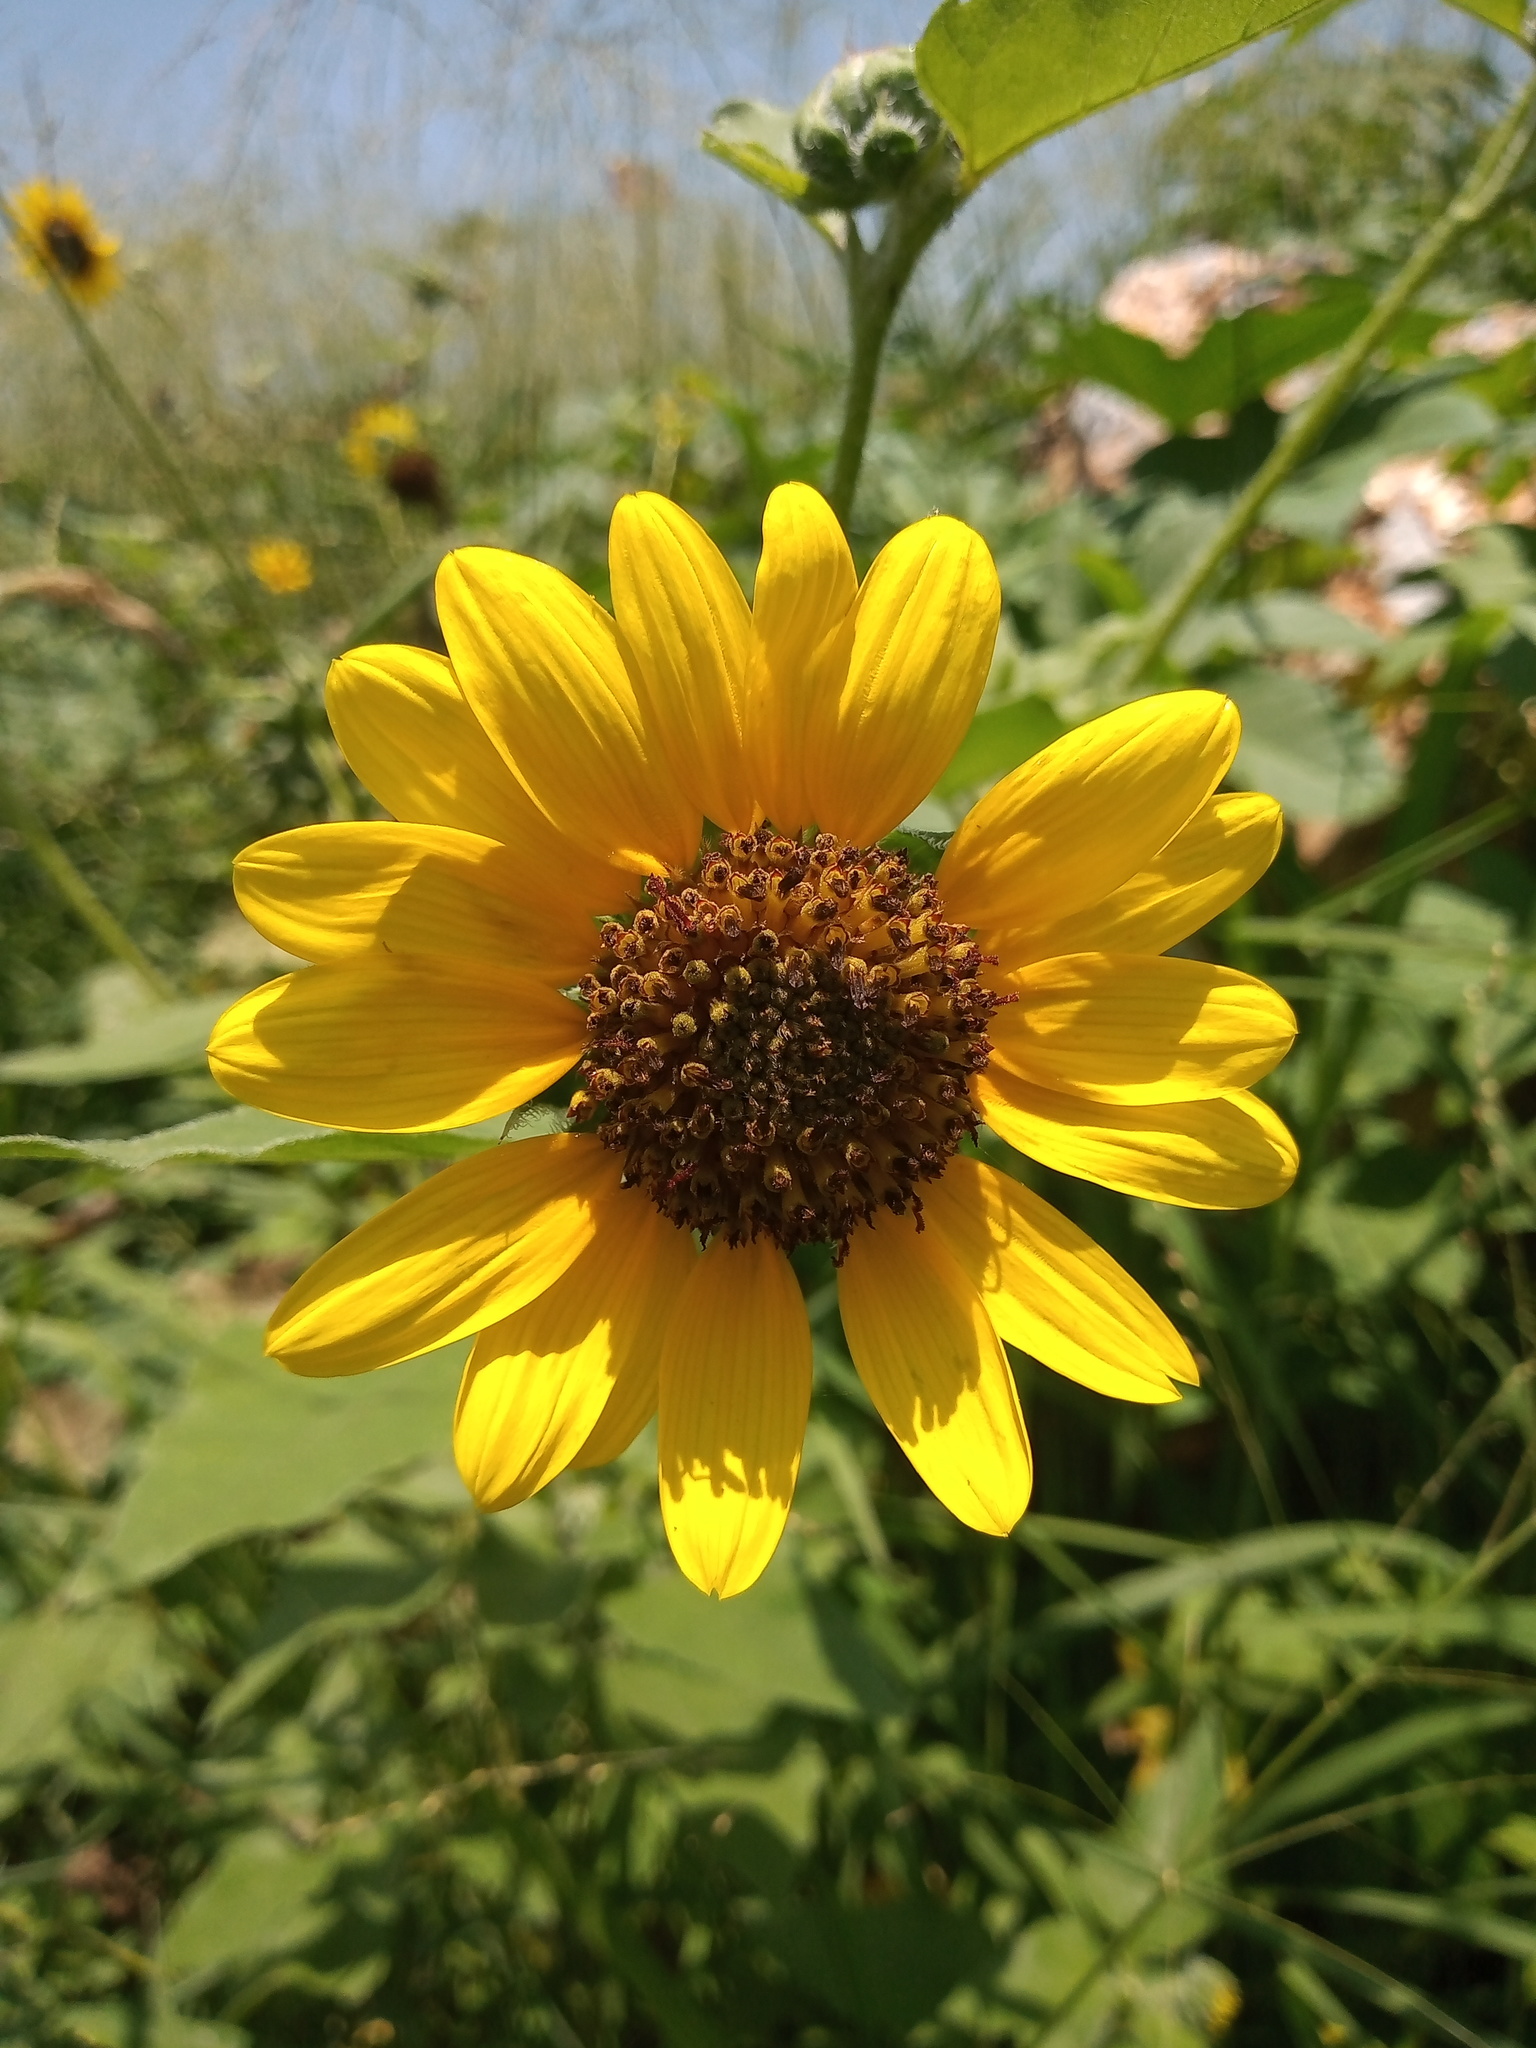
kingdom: Plantae
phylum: Tracheophyta
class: Magnoliopsida
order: Asterales
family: Asteraceae
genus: Helianthus
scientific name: Helianthus annuus
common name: Sunflower
